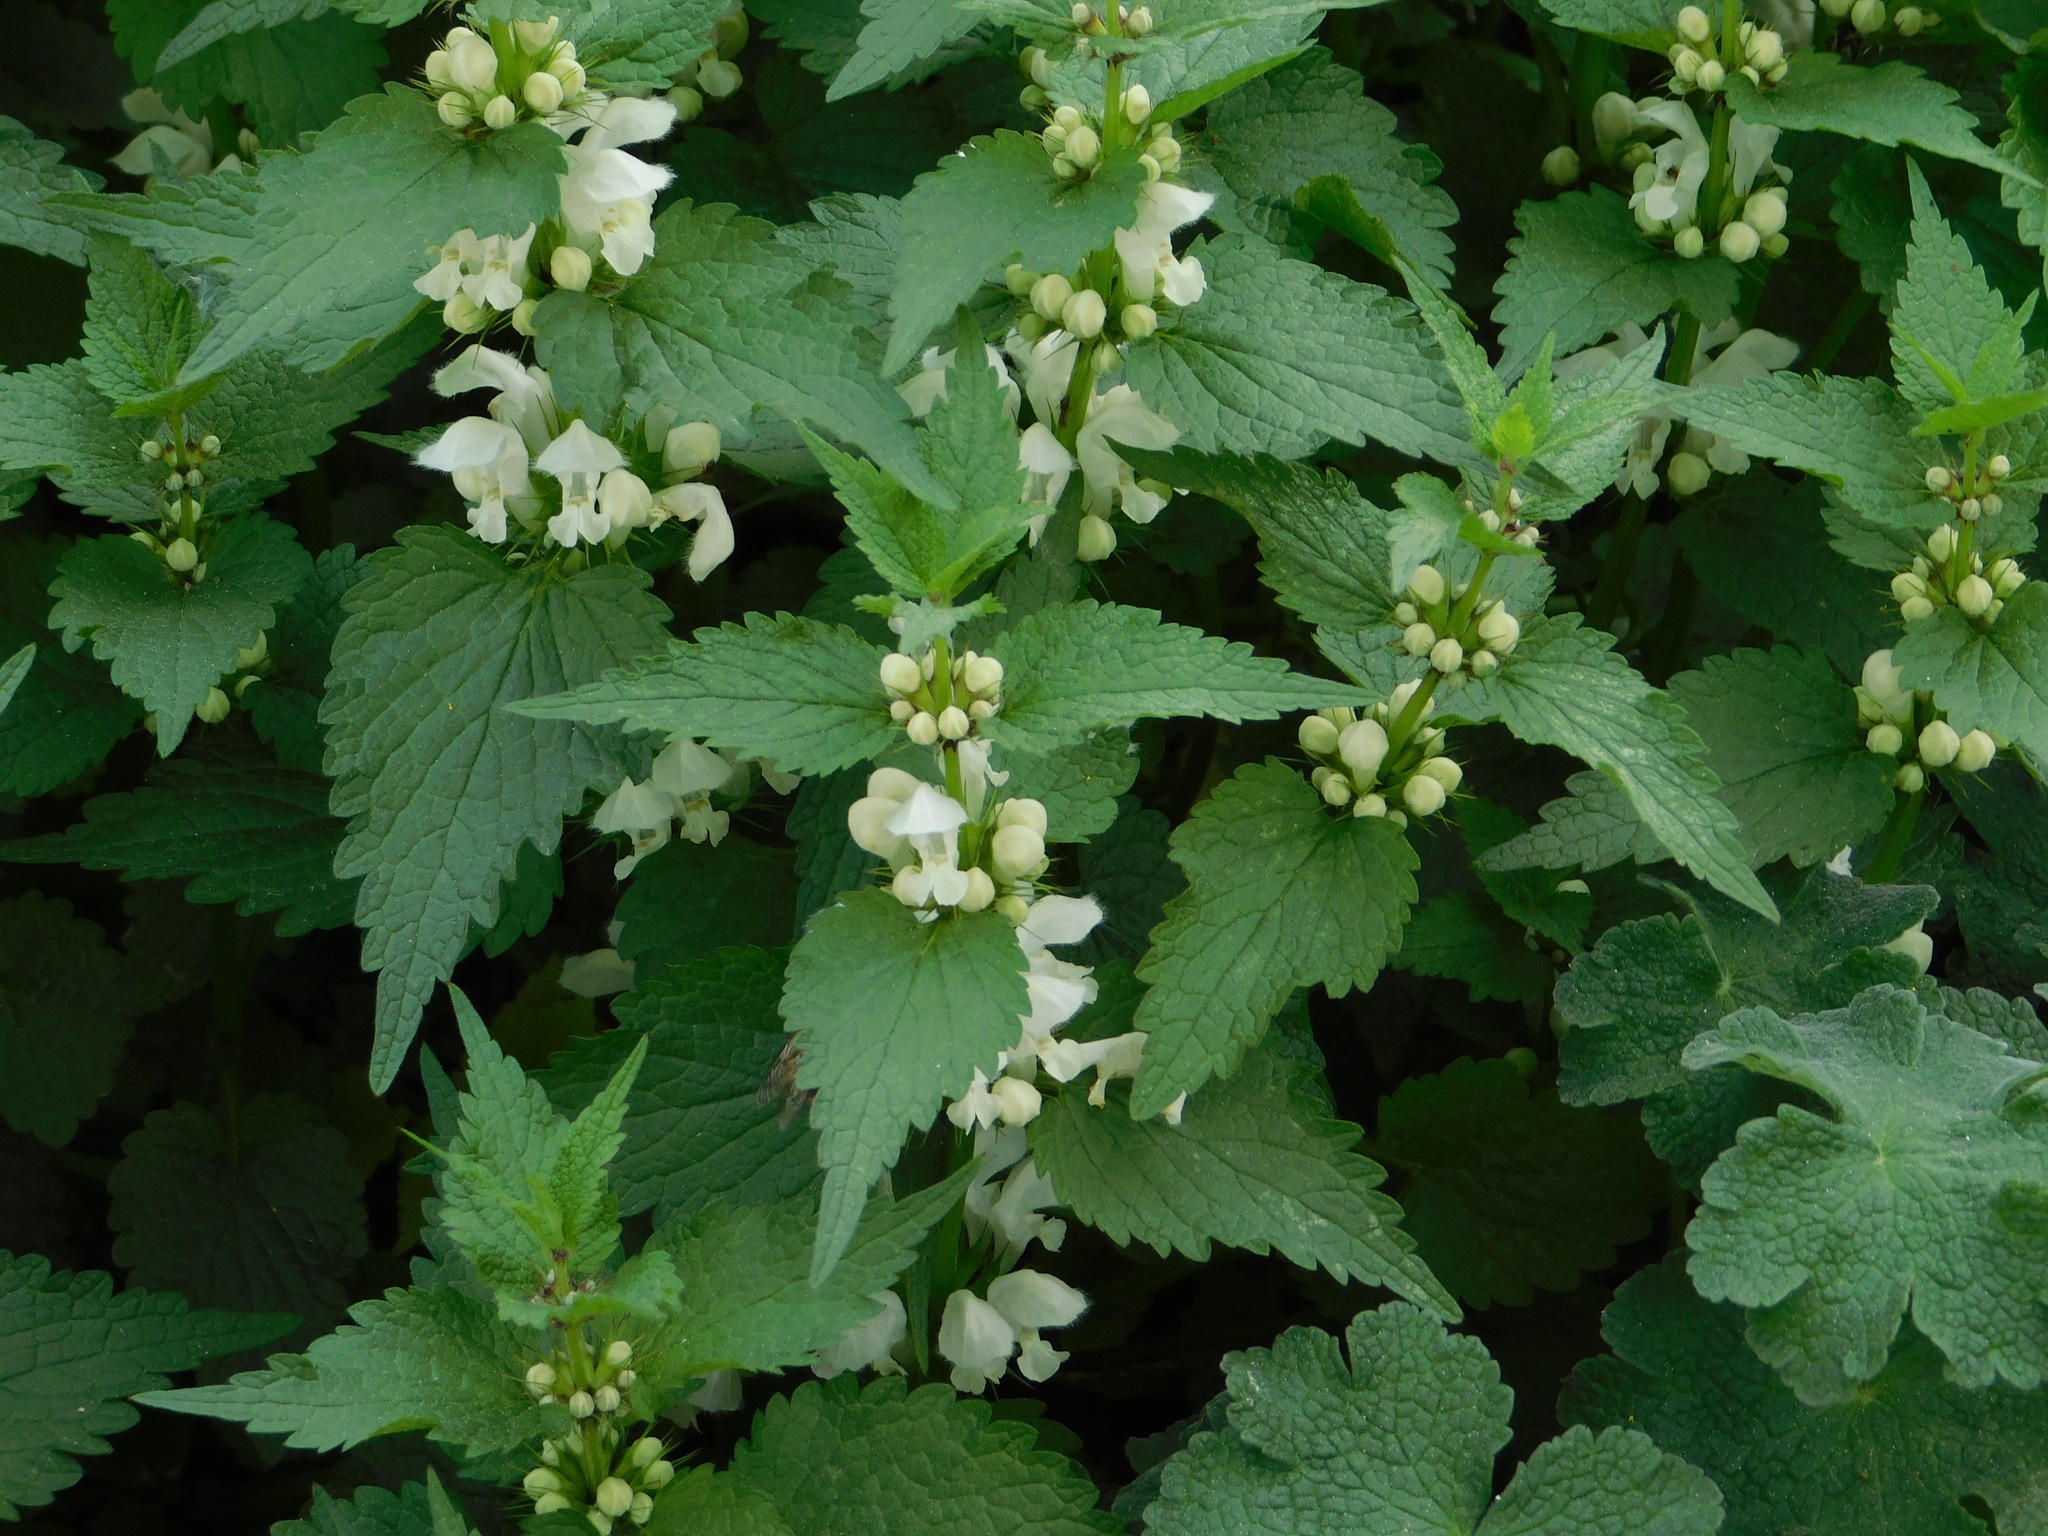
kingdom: Plantae
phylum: Tracheophyta
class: Magnoliopsida
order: Lamiales
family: Lamiaceae
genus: Lamium
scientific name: Lamium album
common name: White dead-nettle
